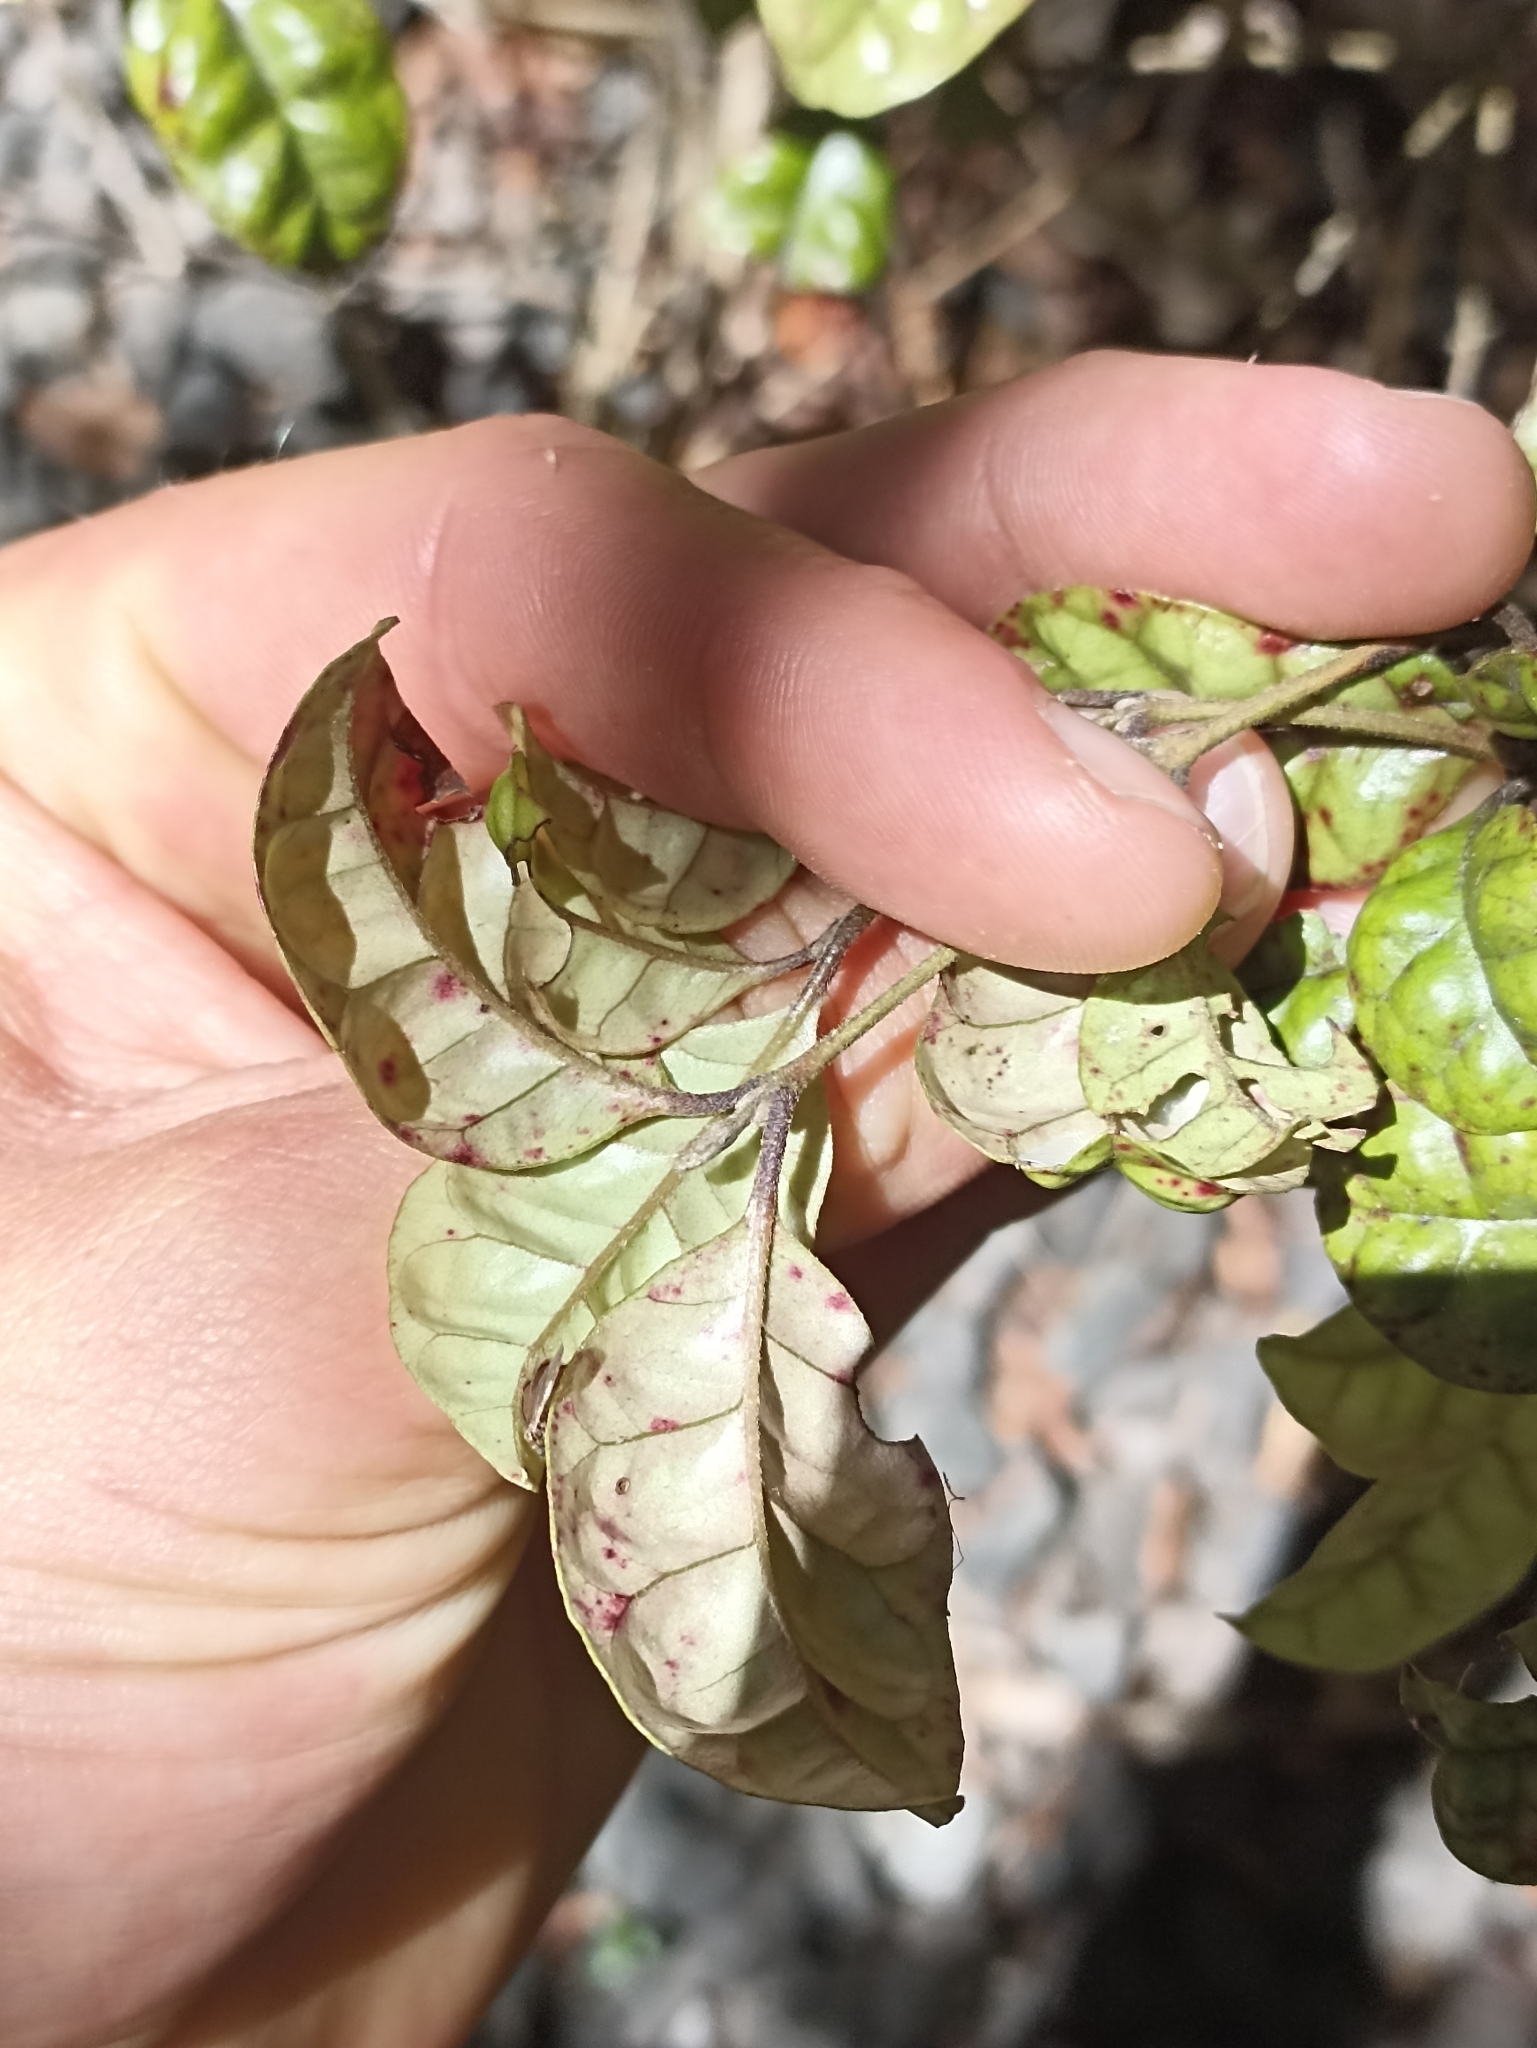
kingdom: Plantae
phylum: Tracheophyta
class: Magnoliopsida
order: Myrtales
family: Myrtaceae
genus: Lophomyrtus
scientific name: Lophomyrtus bullata
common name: Rama rama
